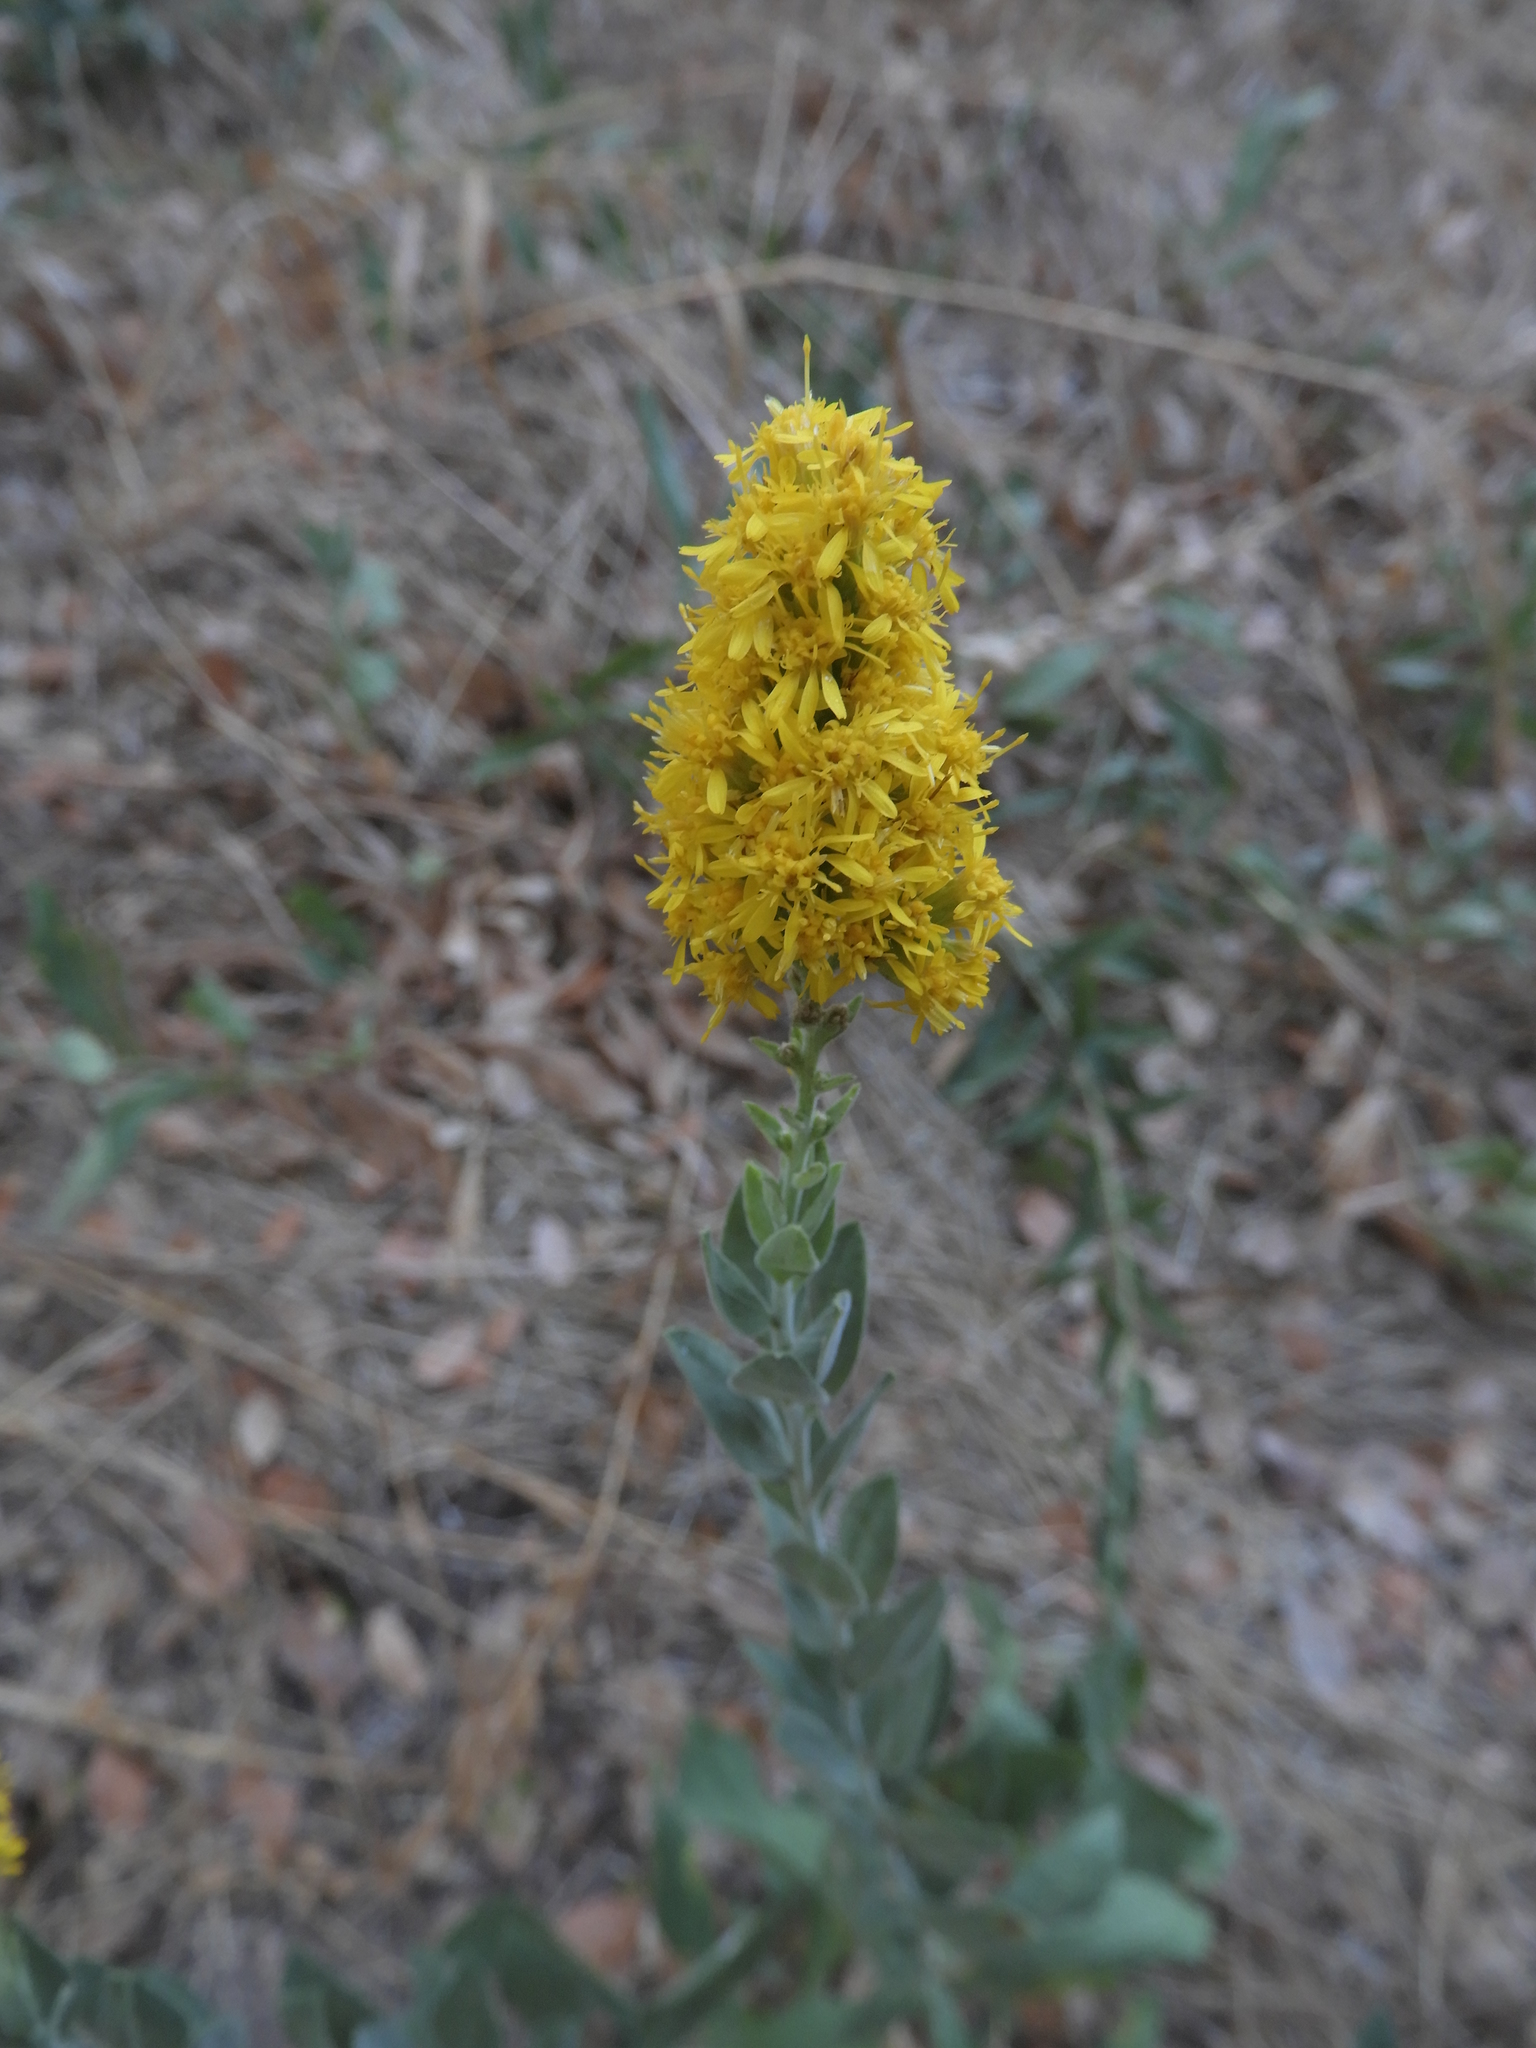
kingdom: Plantae
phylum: Tracheophyta
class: Magnoliopsida
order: Asterales
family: Asteraceae
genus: Solidago
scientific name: Solidago velutina
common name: Three-nerve goldenrod
